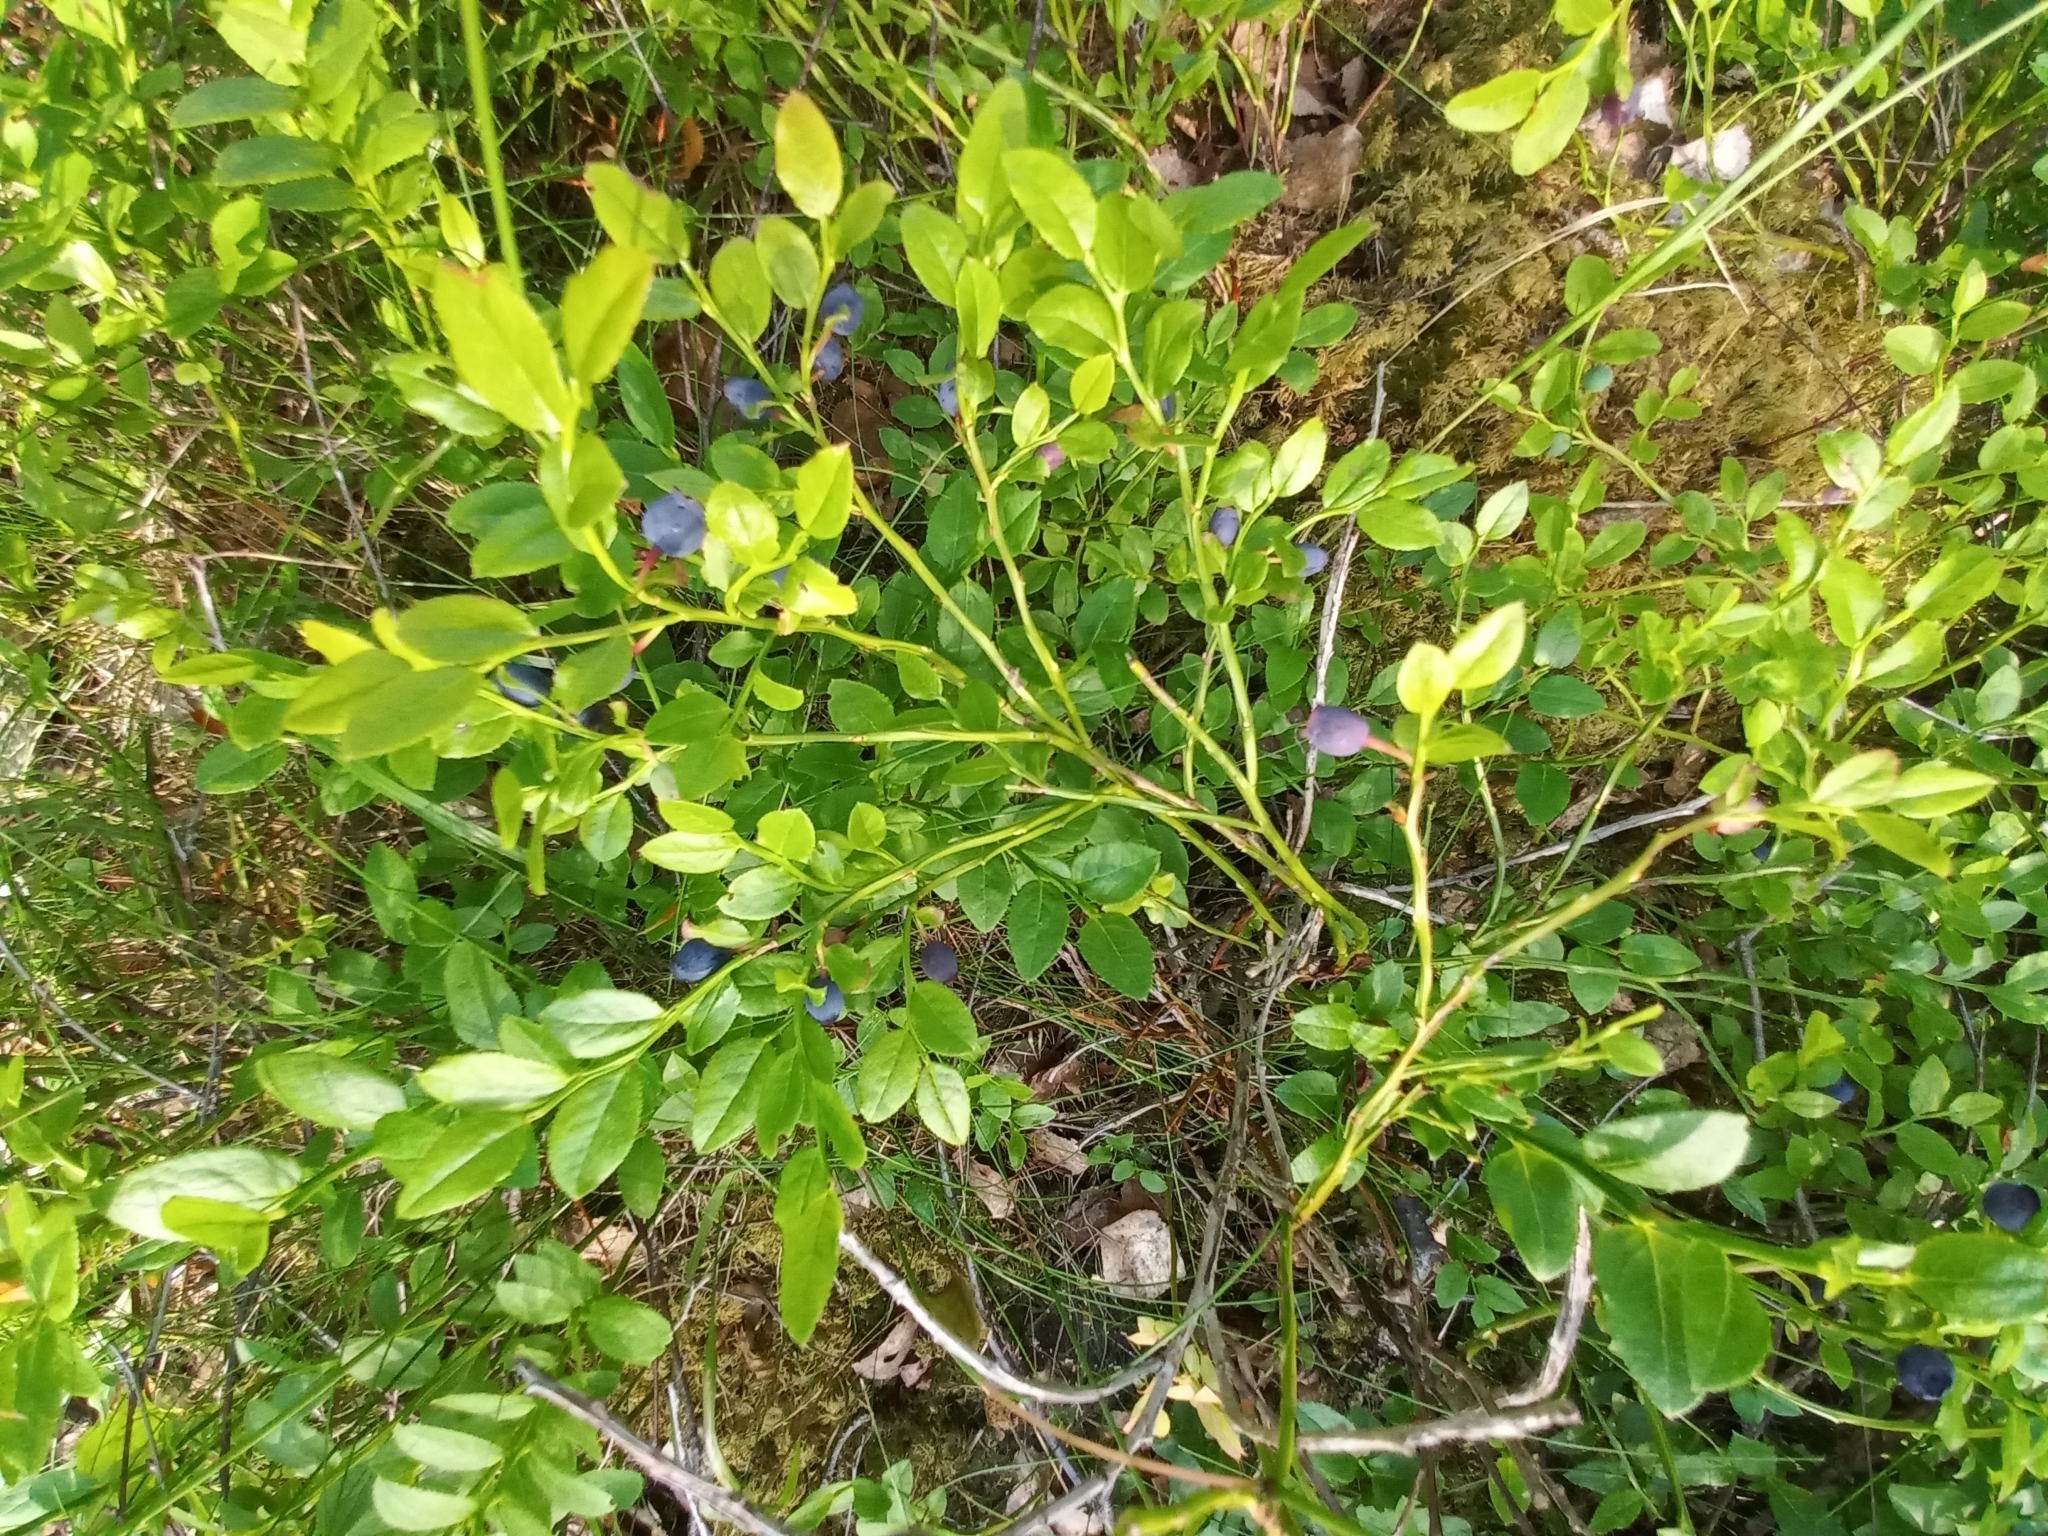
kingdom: Plantae
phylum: Tracheophyta
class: Magnoliopsida
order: Ericales
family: Ericaceae
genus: Vaccinium
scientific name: Vaccinium myrtillus
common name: Bilberry
